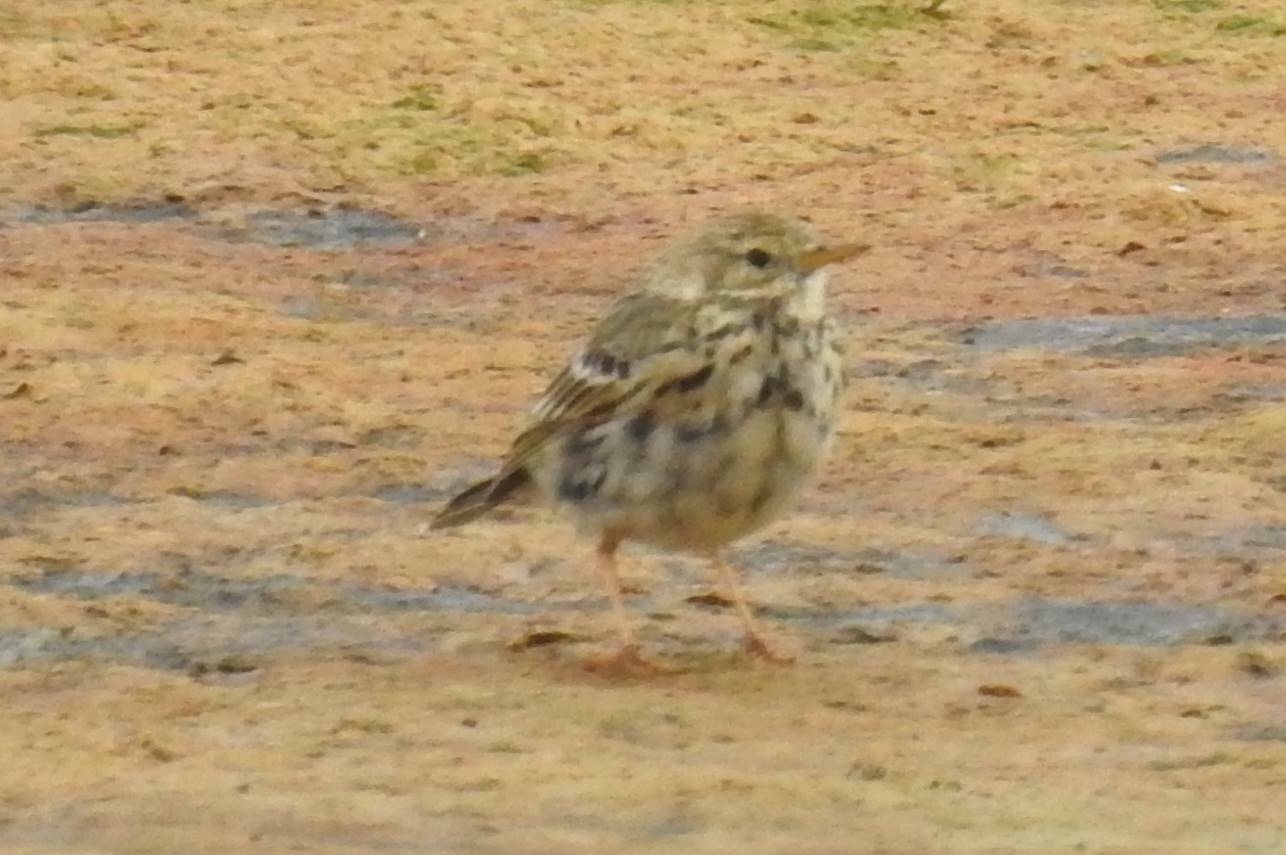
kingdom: Animalia
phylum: Chordata
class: Aves
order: Passeriformes
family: Motacillidae
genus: Anthus
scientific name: Anthus pratensis
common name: Meadow pipit
